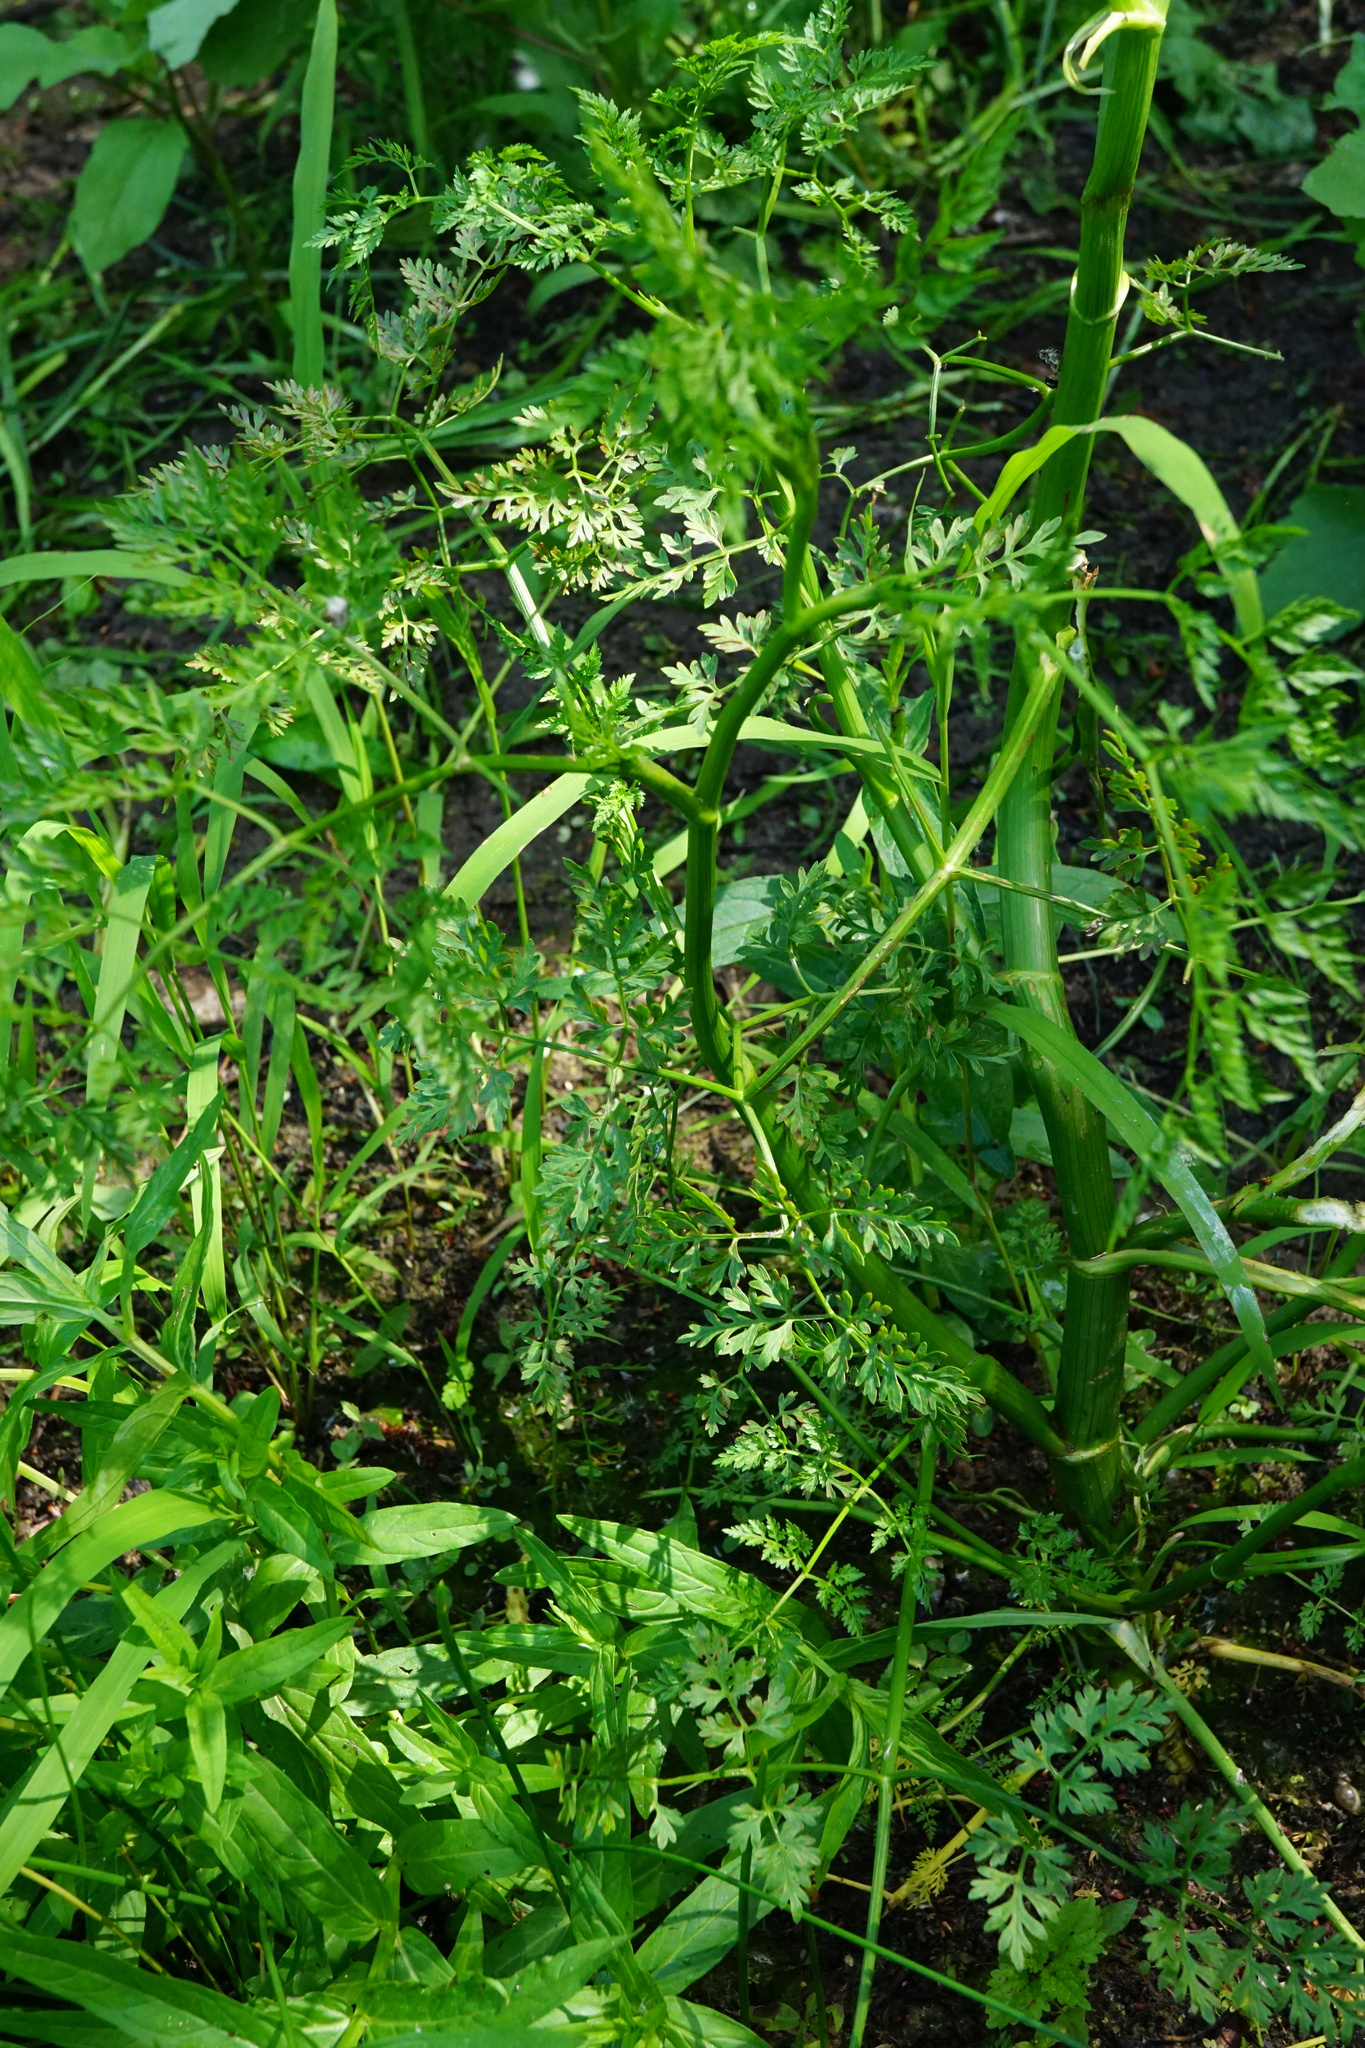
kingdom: Plantae
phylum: Tracheophyta
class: Magnoliopsida
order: Apiales
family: Apiaceae
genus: Oenanthe
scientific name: Oenanthe aquatica
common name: Fine-leaved water-dropwort
